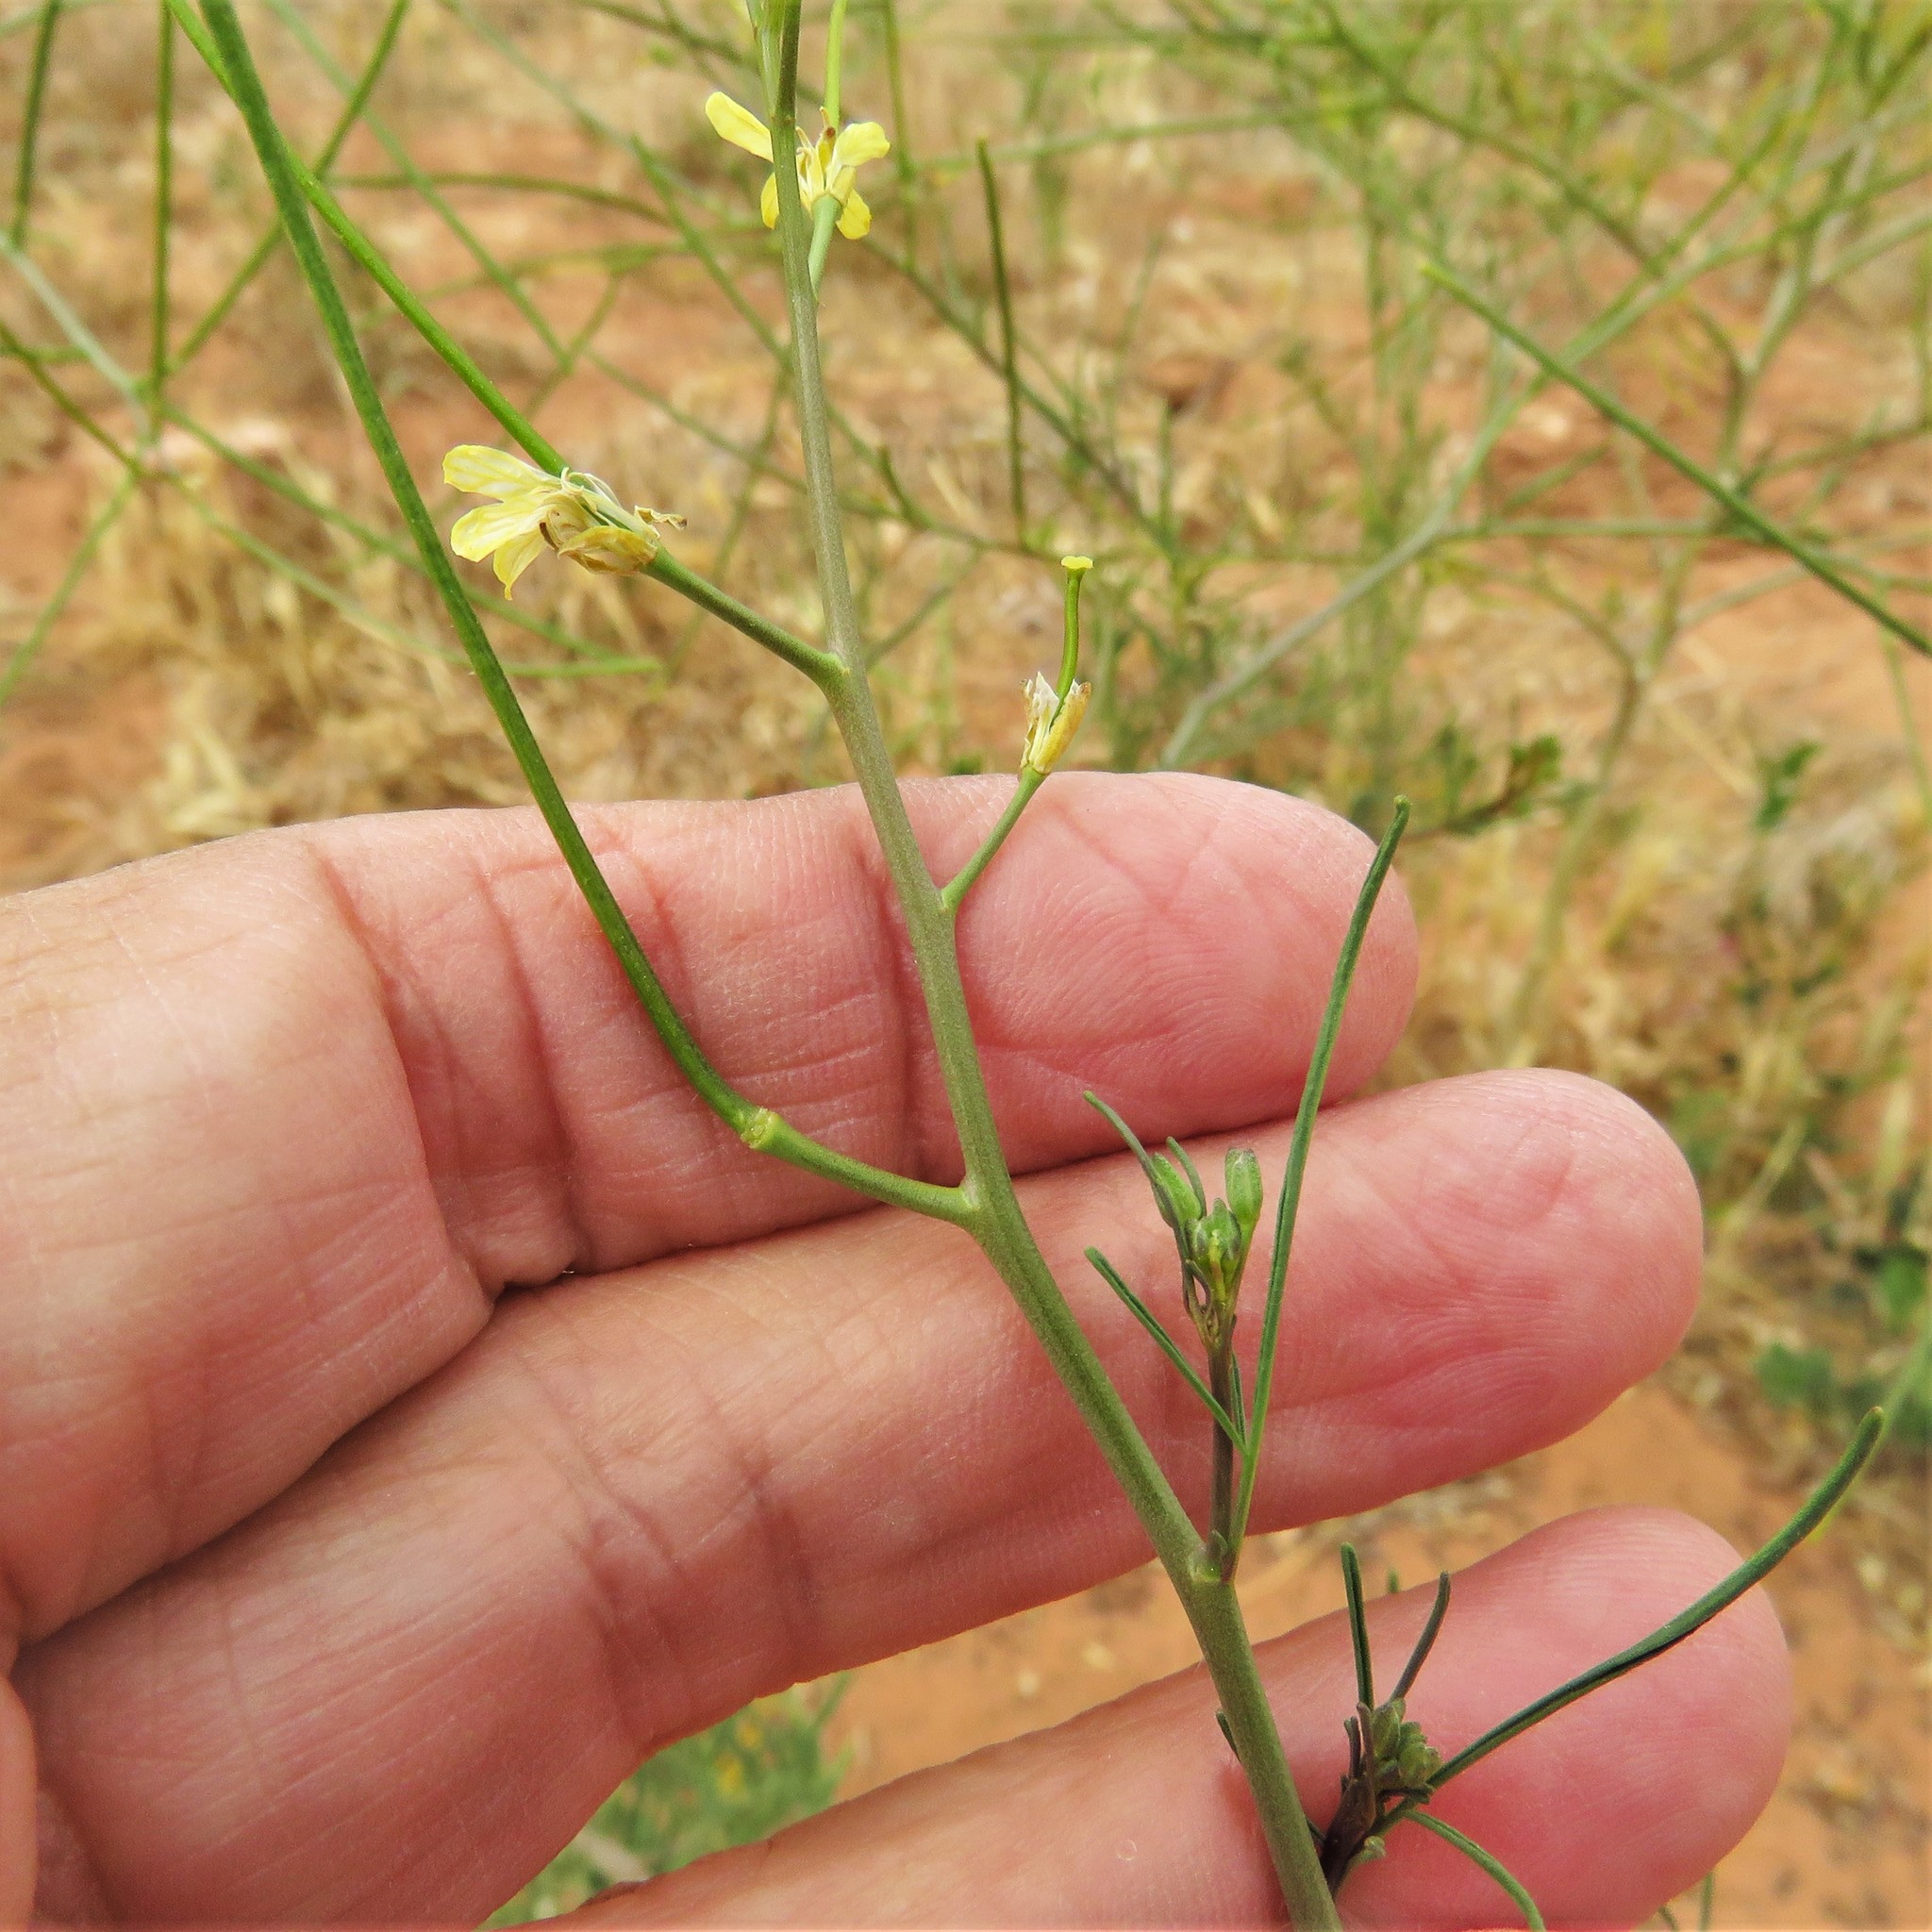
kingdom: Plantae
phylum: Tracheophyta
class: Magnoliopsida
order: Brassicales
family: Brassicaceae
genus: Sisymbrium
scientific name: Sisymbrium altissimum
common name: Tall rocket
